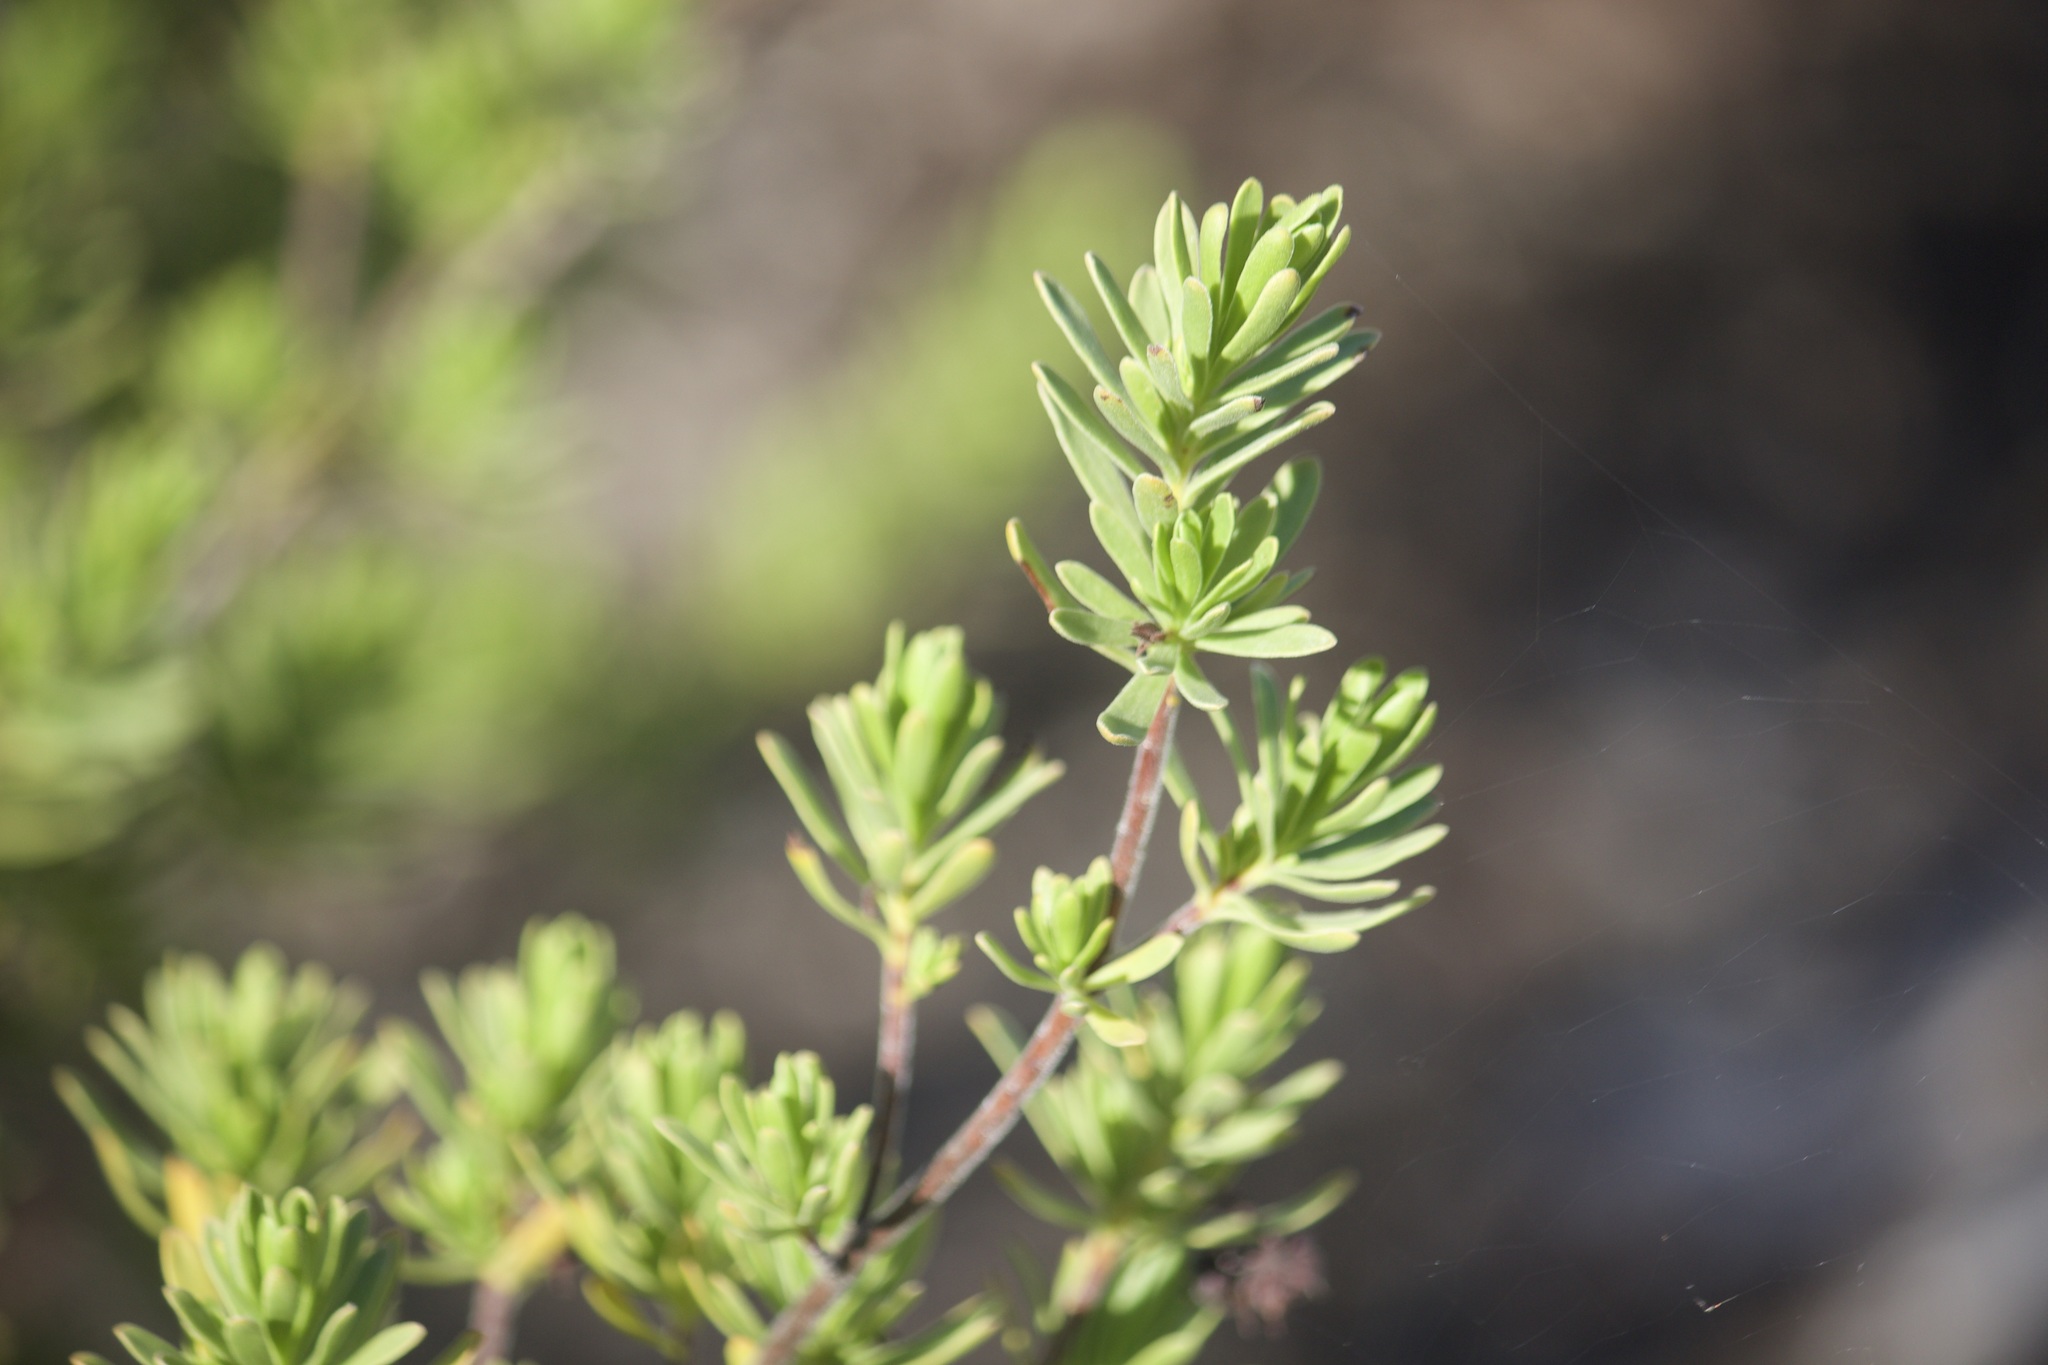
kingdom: Plantae
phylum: Tracheophyta
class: Magnoliopsida
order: Fabales
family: Surianaceae
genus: Suriana
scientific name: Suriana maritima
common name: Bay-cedar
